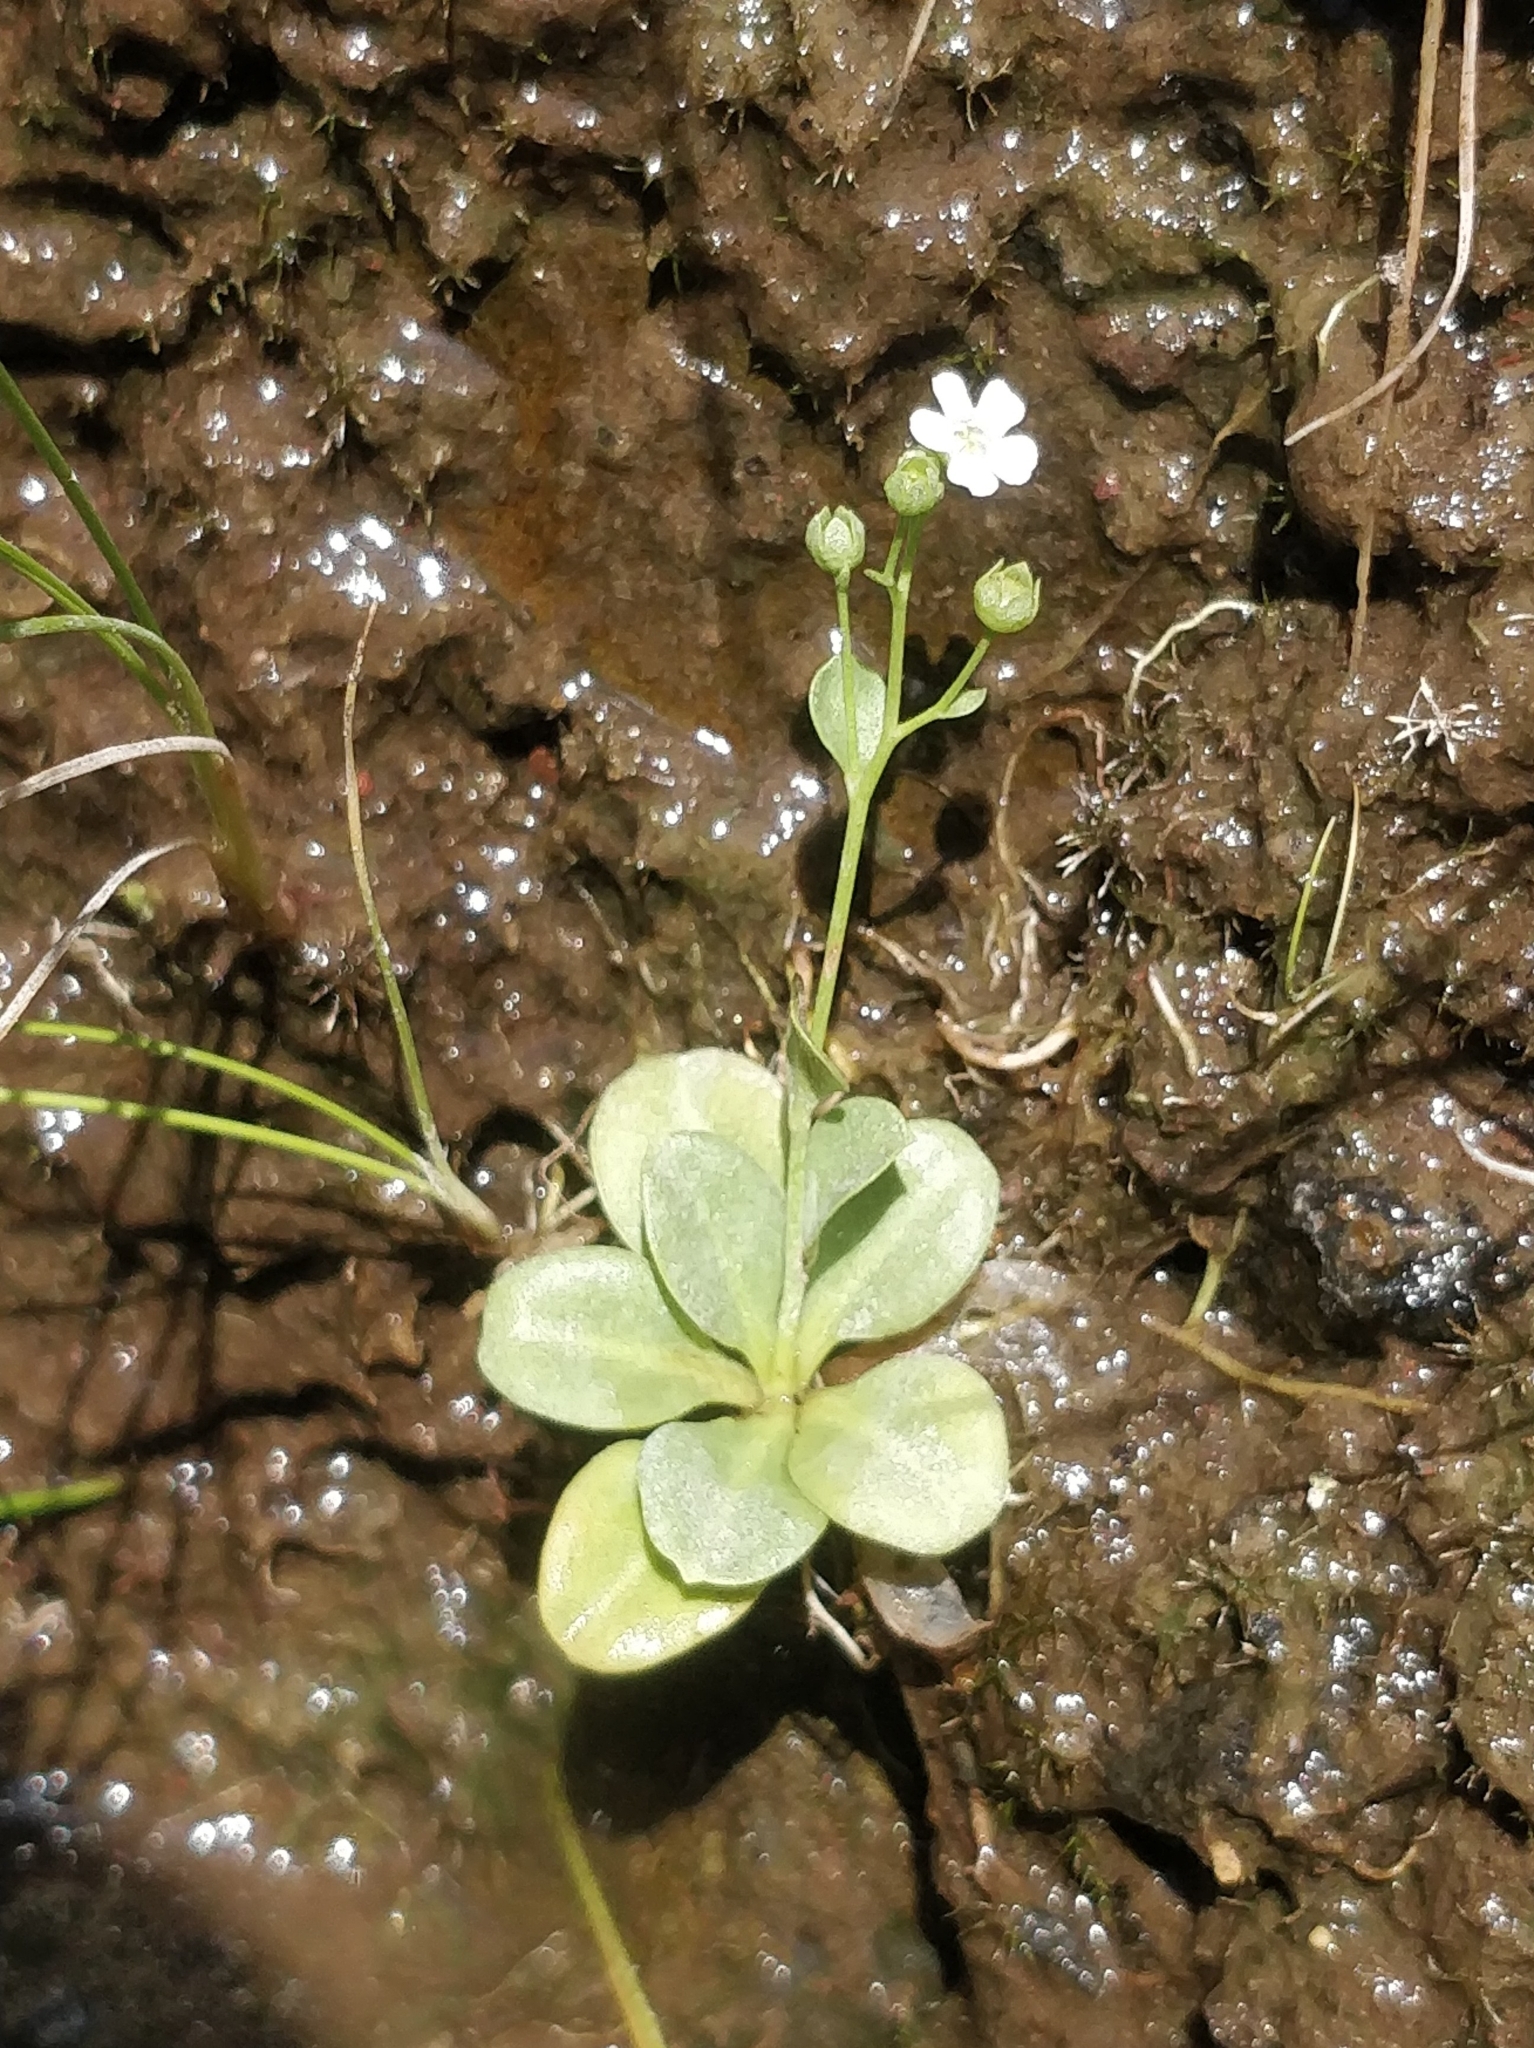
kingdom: Plantae
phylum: Tracheophyta
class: Magnoliopsida
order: Ericales
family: Primulaceae
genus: Samolus
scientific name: Samolus valerandi
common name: Brookweed
